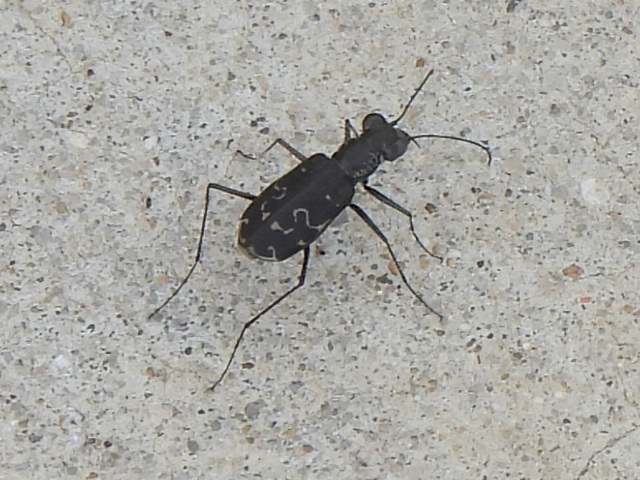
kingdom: Animalia
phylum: Arthropoda
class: Insecta
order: Coleoptera
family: Carabidae
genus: Cicindela
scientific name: Cicindela trifasciata
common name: Mudflat tiger beetle
